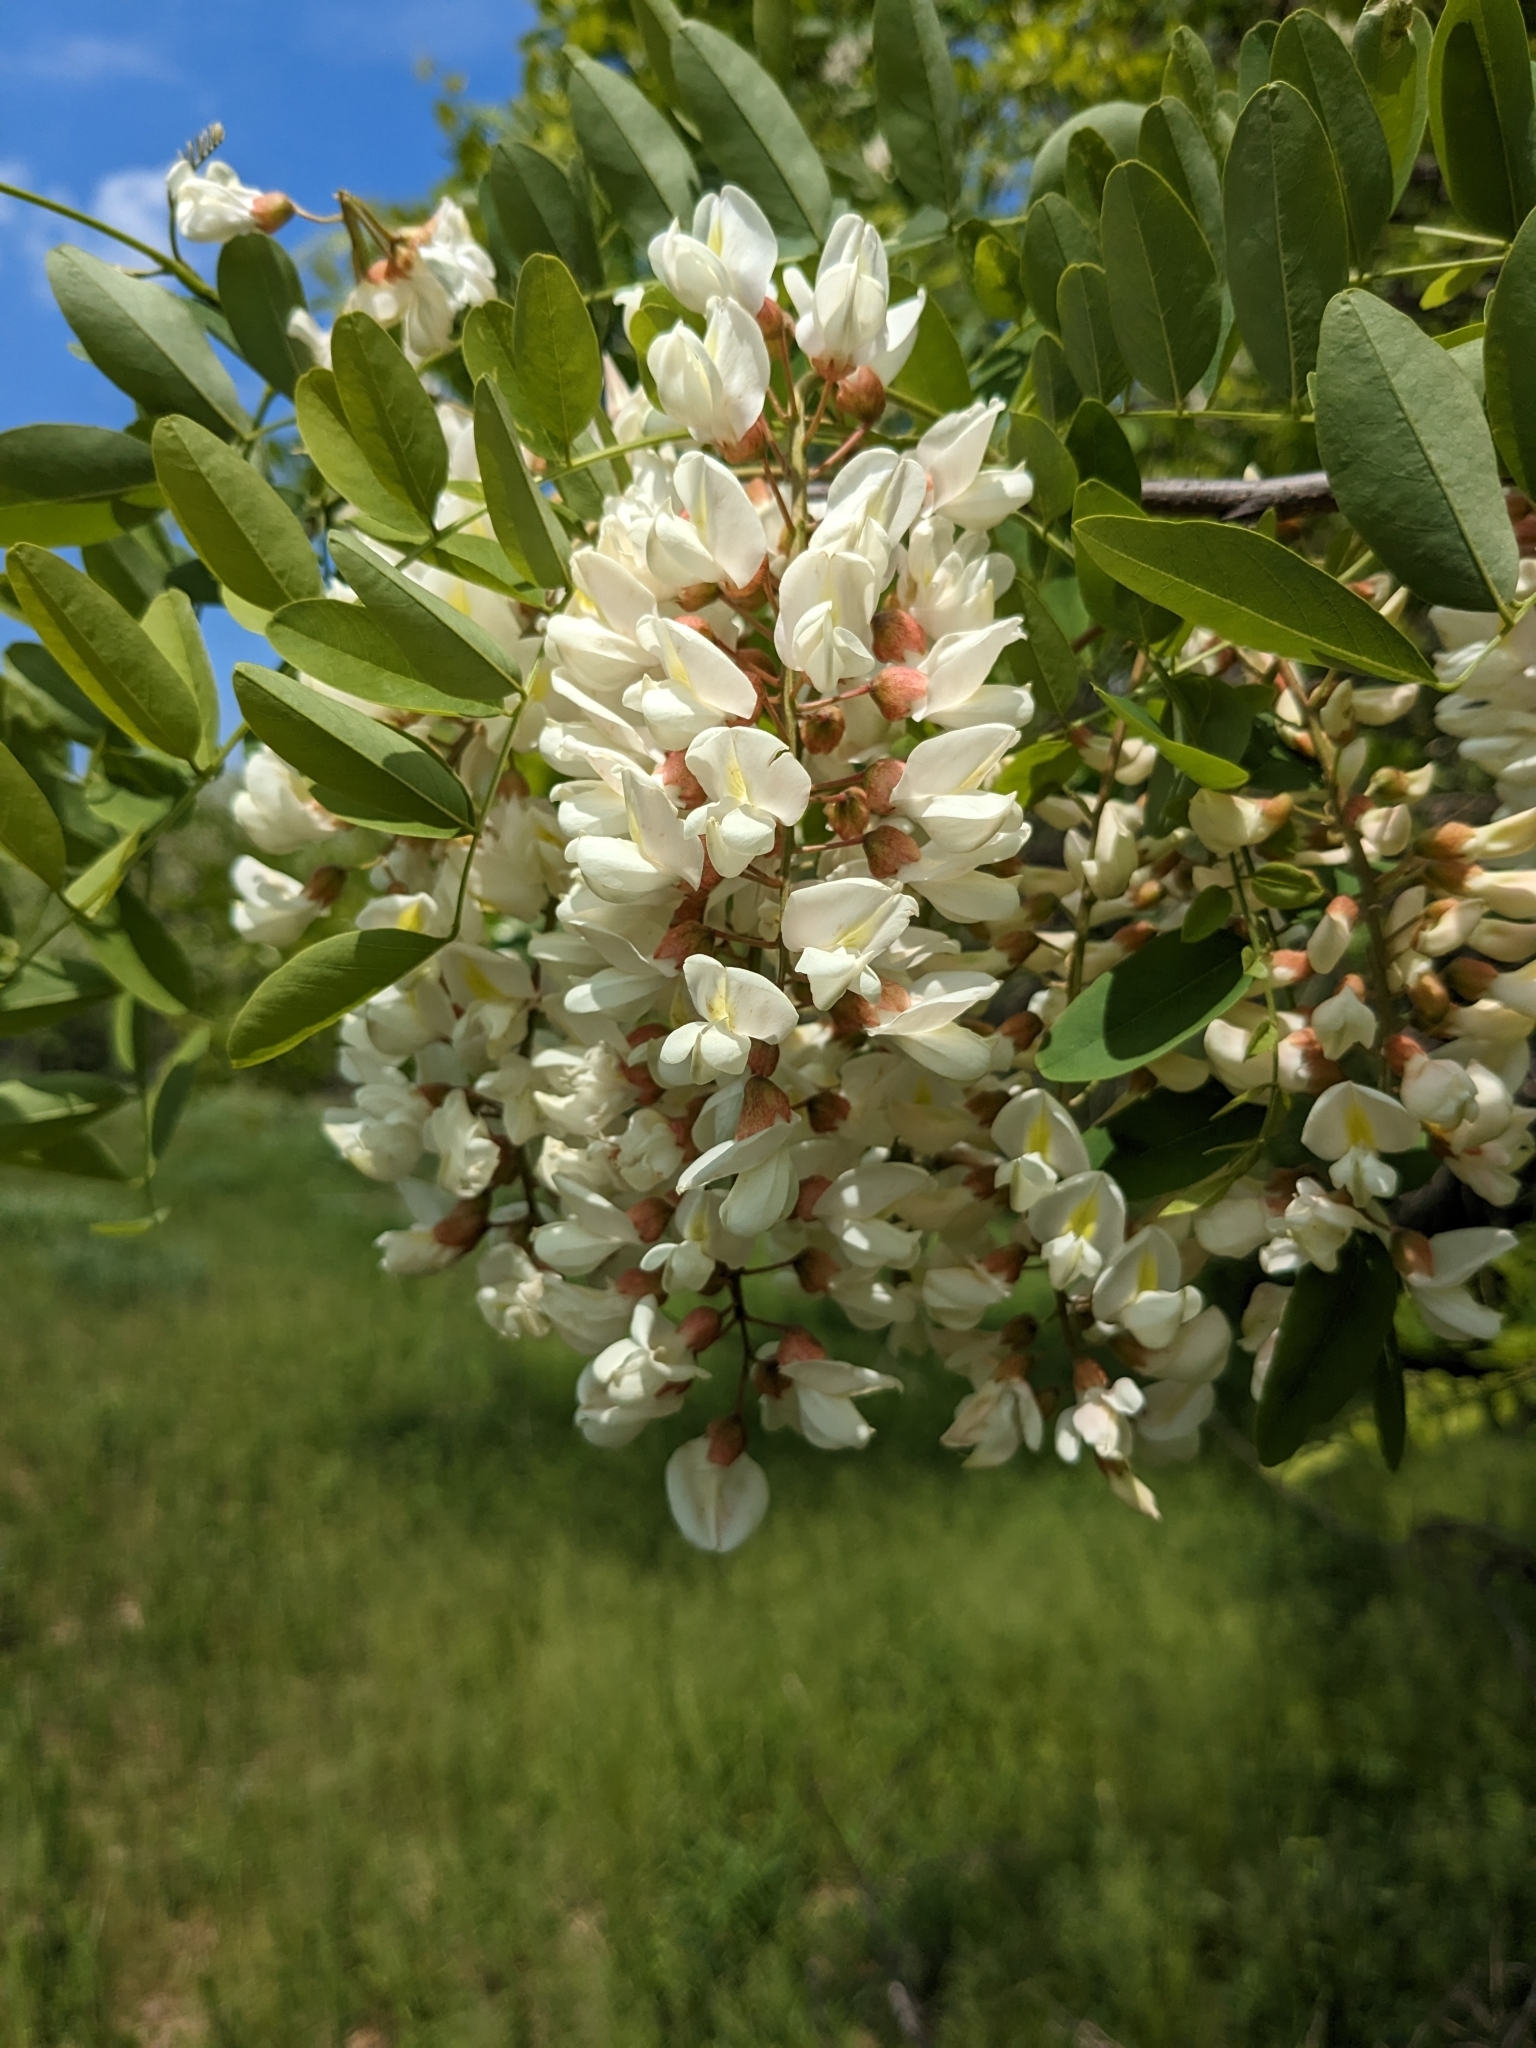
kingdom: Plantae
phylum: Tracheophyta
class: Magnoliopsida
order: Fabales
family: Fabaceae
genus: Robinia
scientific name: Robinia pseudoacacia
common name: Black locust
